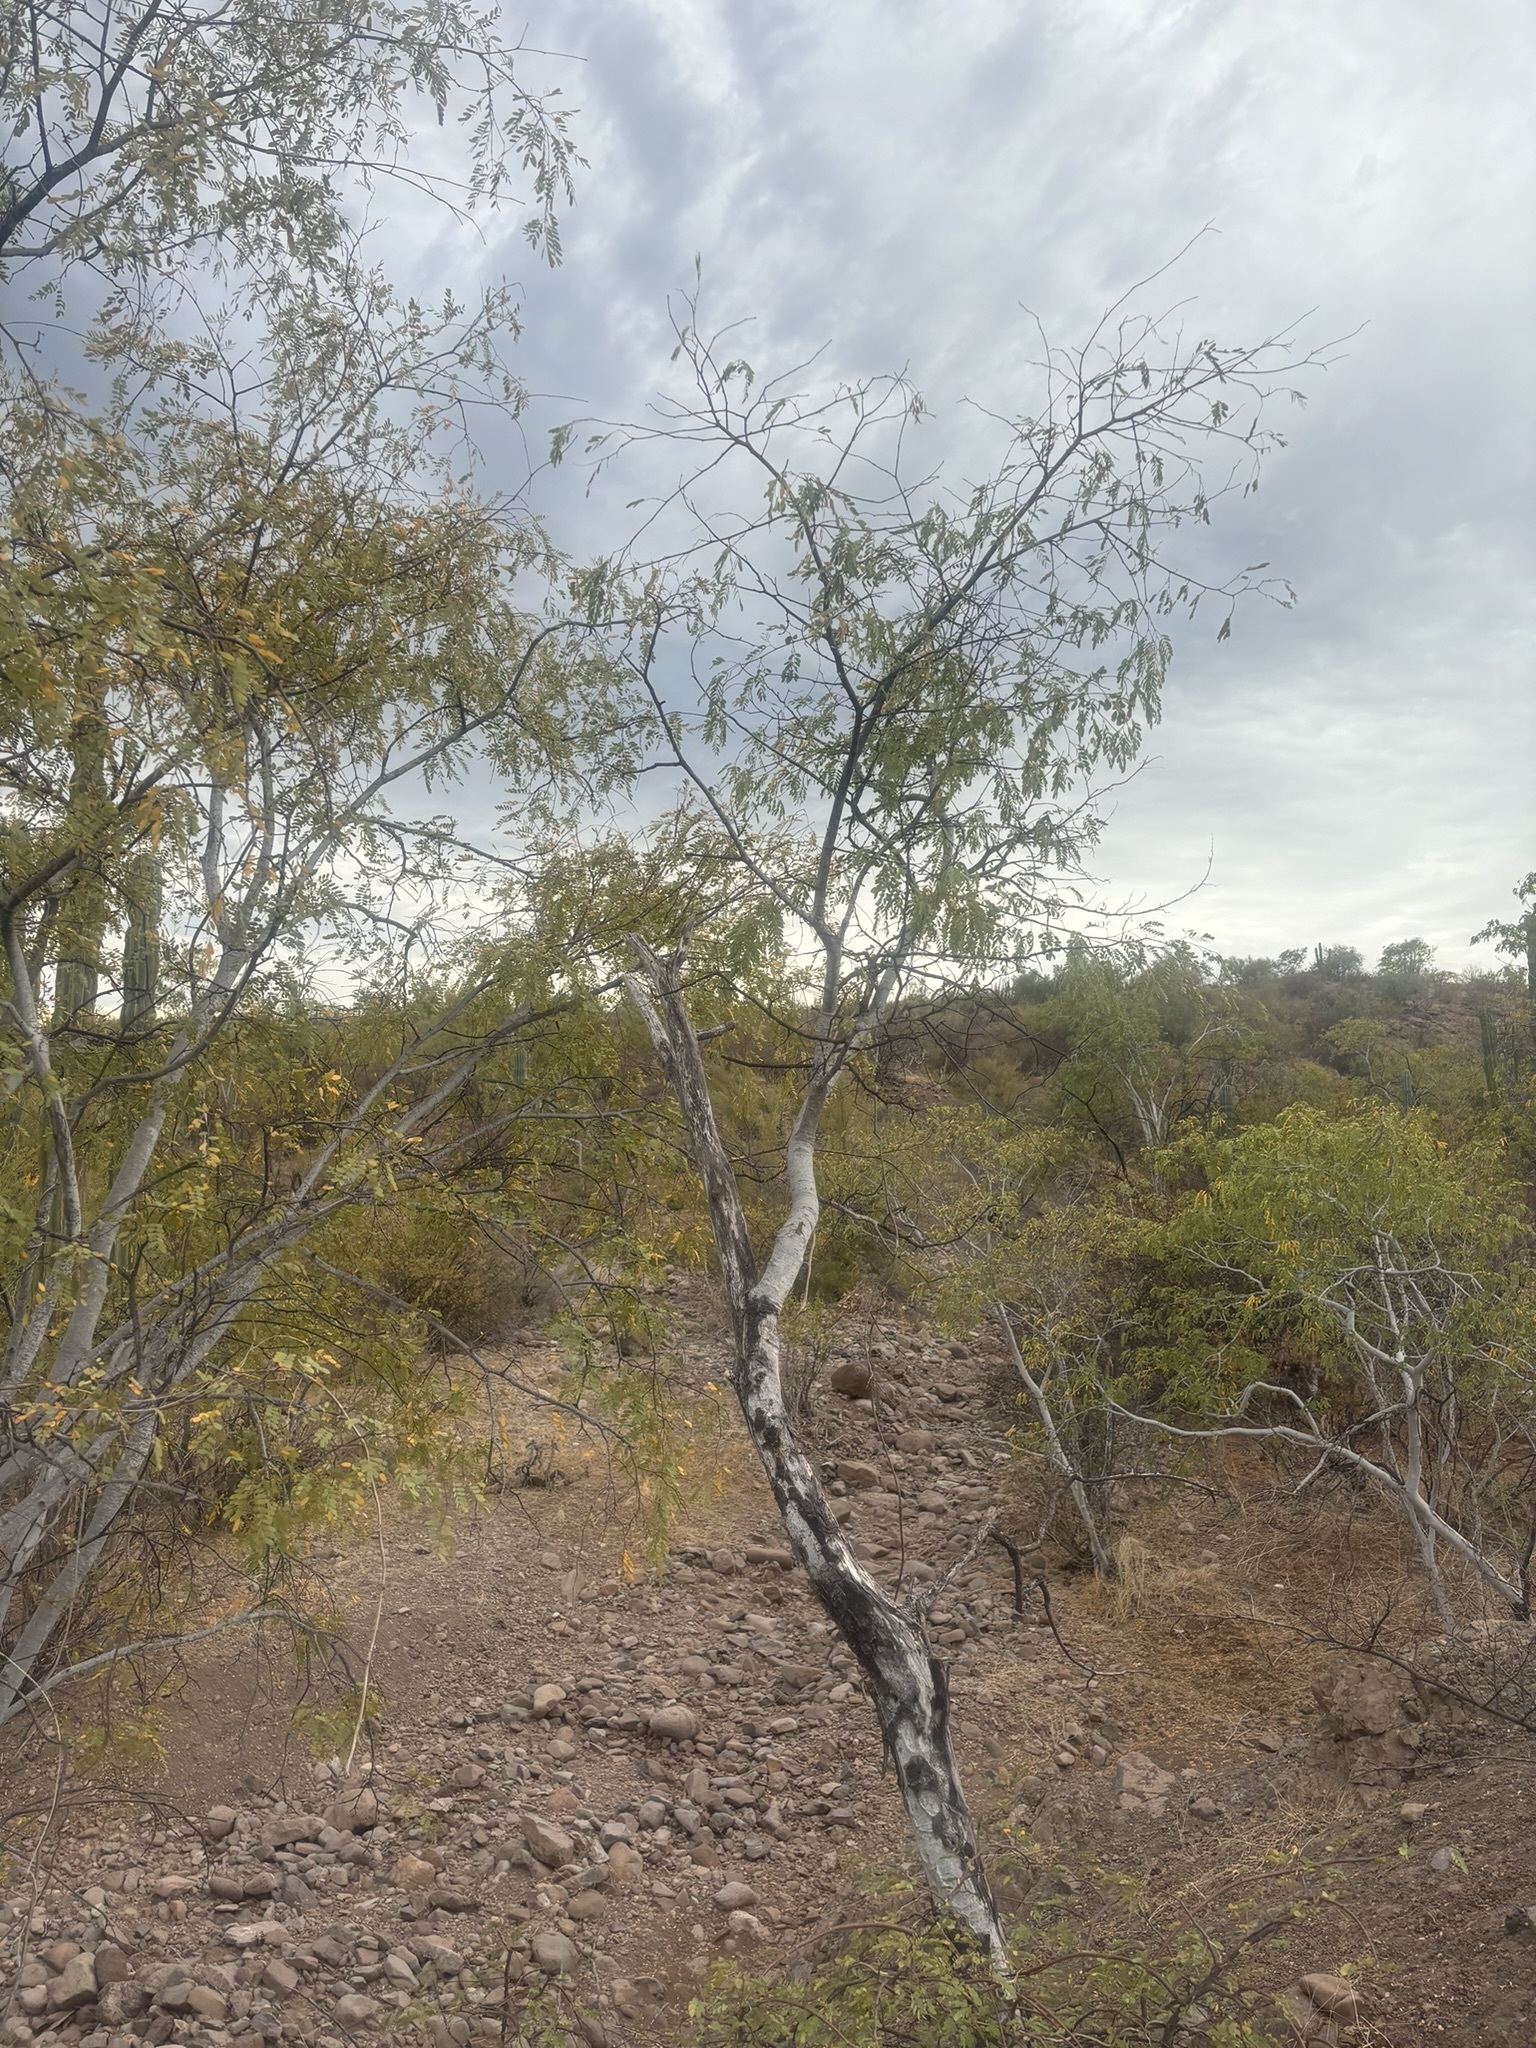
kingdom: Plantae
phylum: Tracheophyta
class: Magnoliopsida
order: Fabales
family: Fabaceae
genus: Lysiloma
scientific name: Lysiloma candidum
